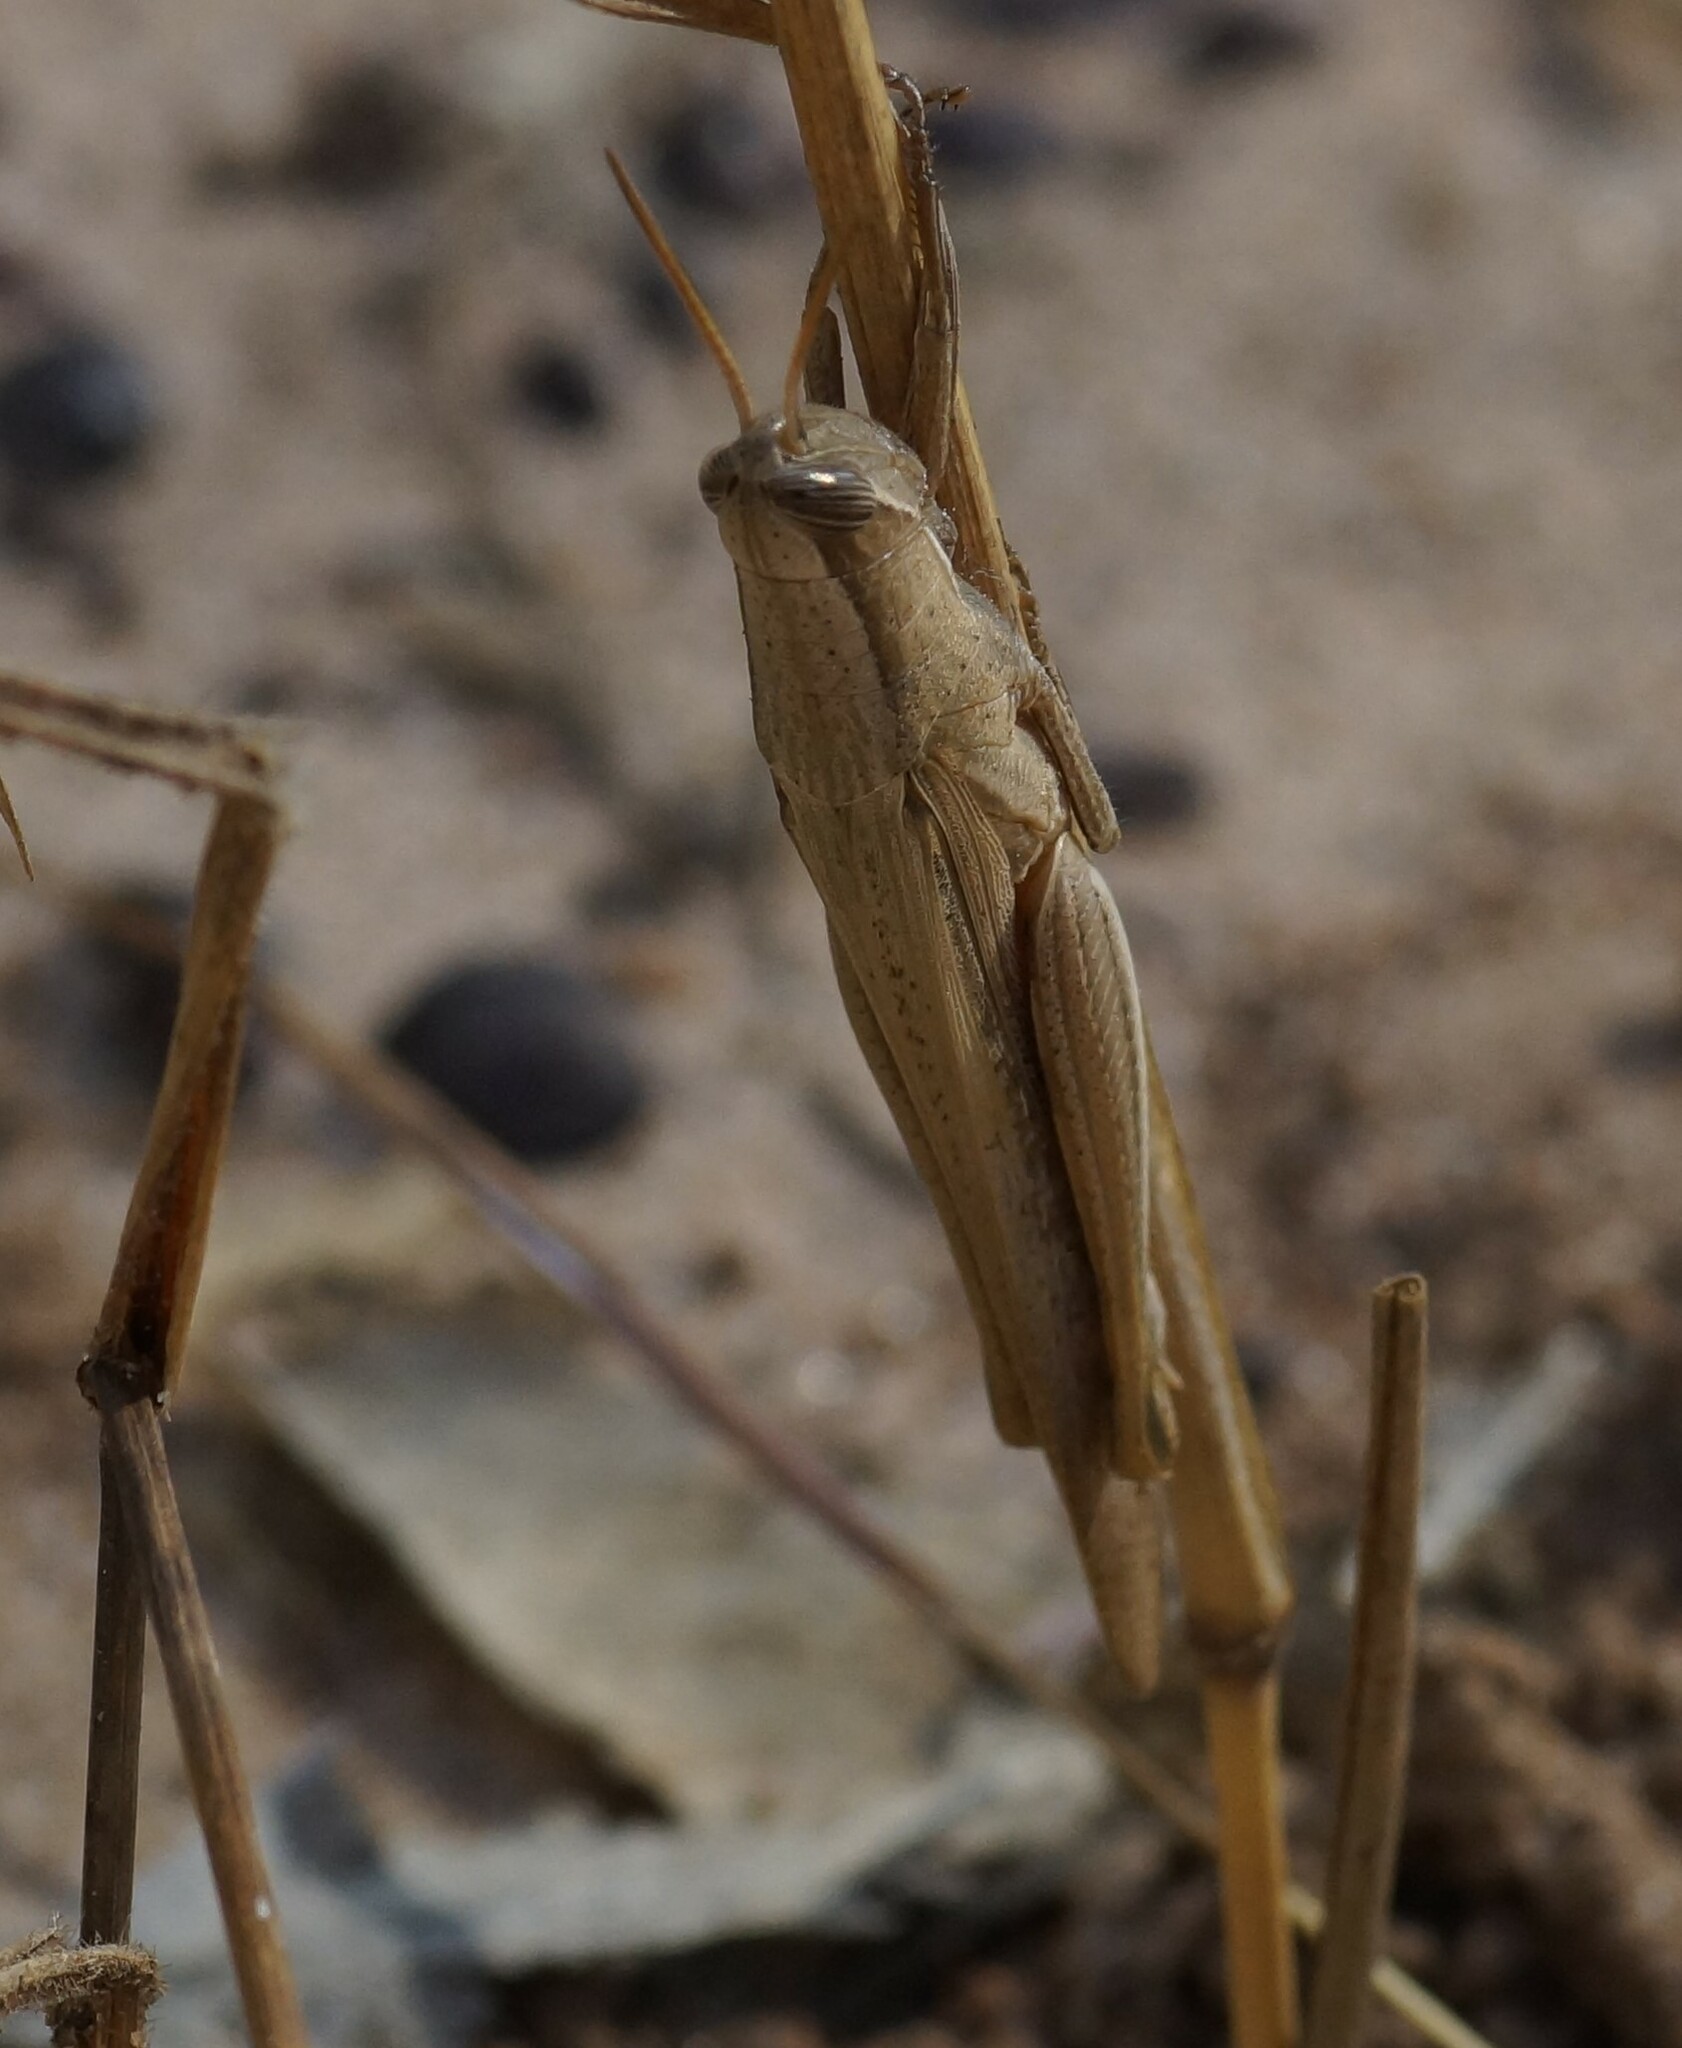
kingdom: Animalia
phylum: Arthropoda
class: Insecta
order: Orthoptera
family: Acrididae
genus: Stenocatantops
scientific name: Stenocatantops vitripennis
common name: Light-brown sharptail
